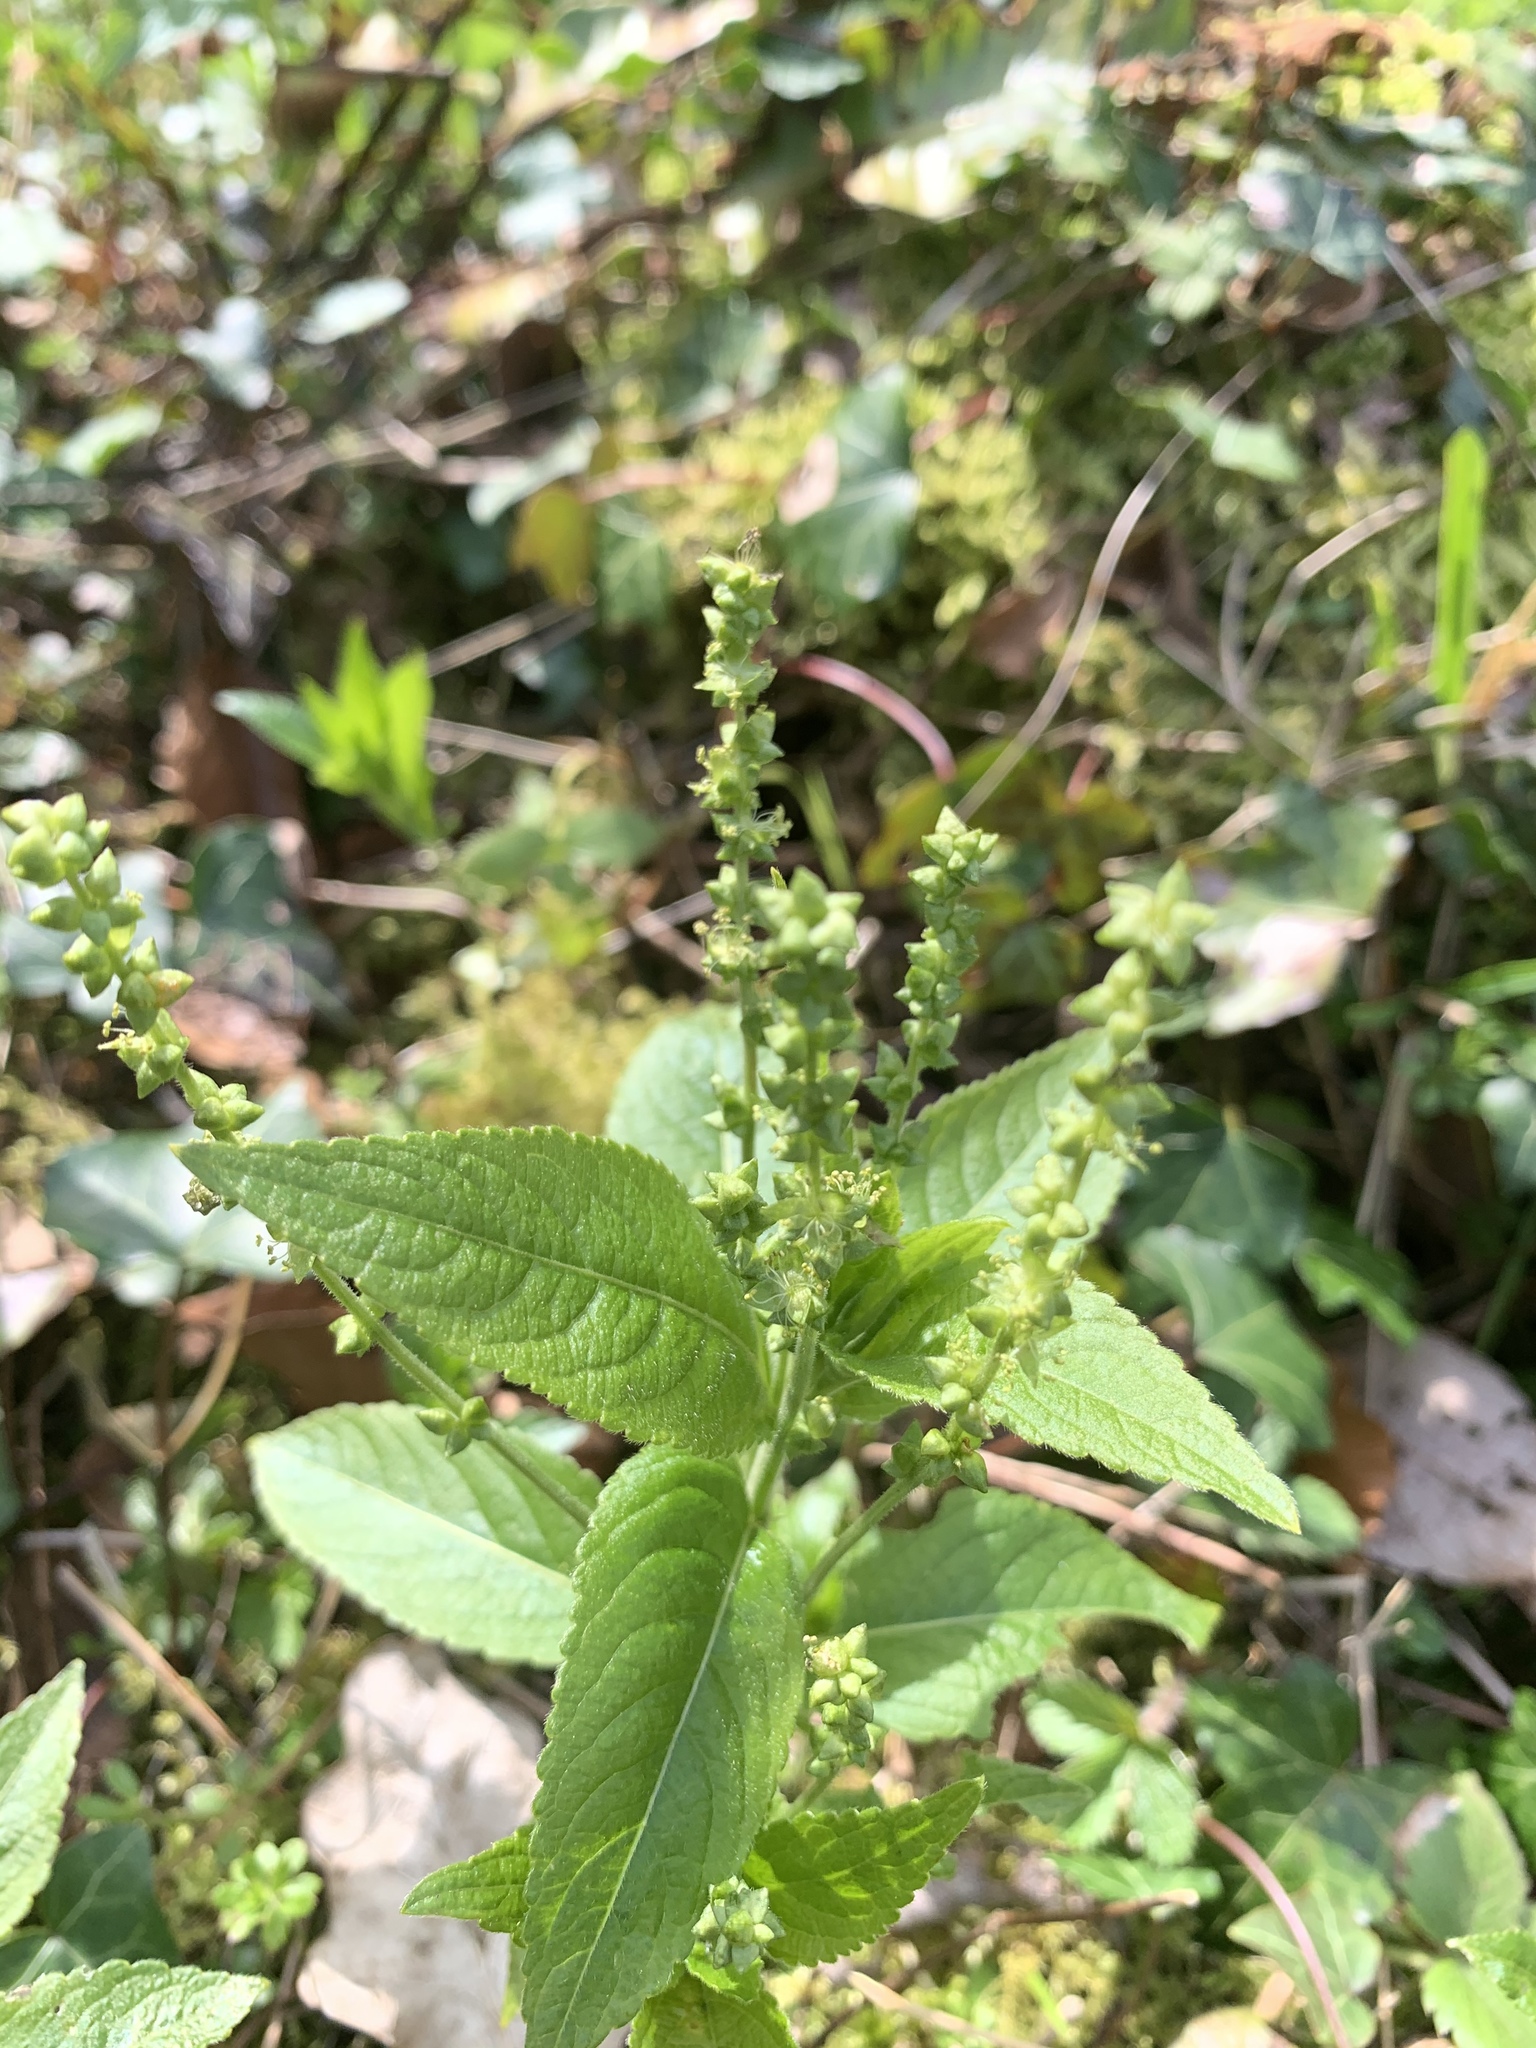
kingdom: Plantae
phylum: Tracheophyta
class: Magnoliopsida
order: Malpighiales
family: Euphorbiaceae
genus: Mercurialis
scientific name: Mercurialis perennis
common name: Dog mercury
